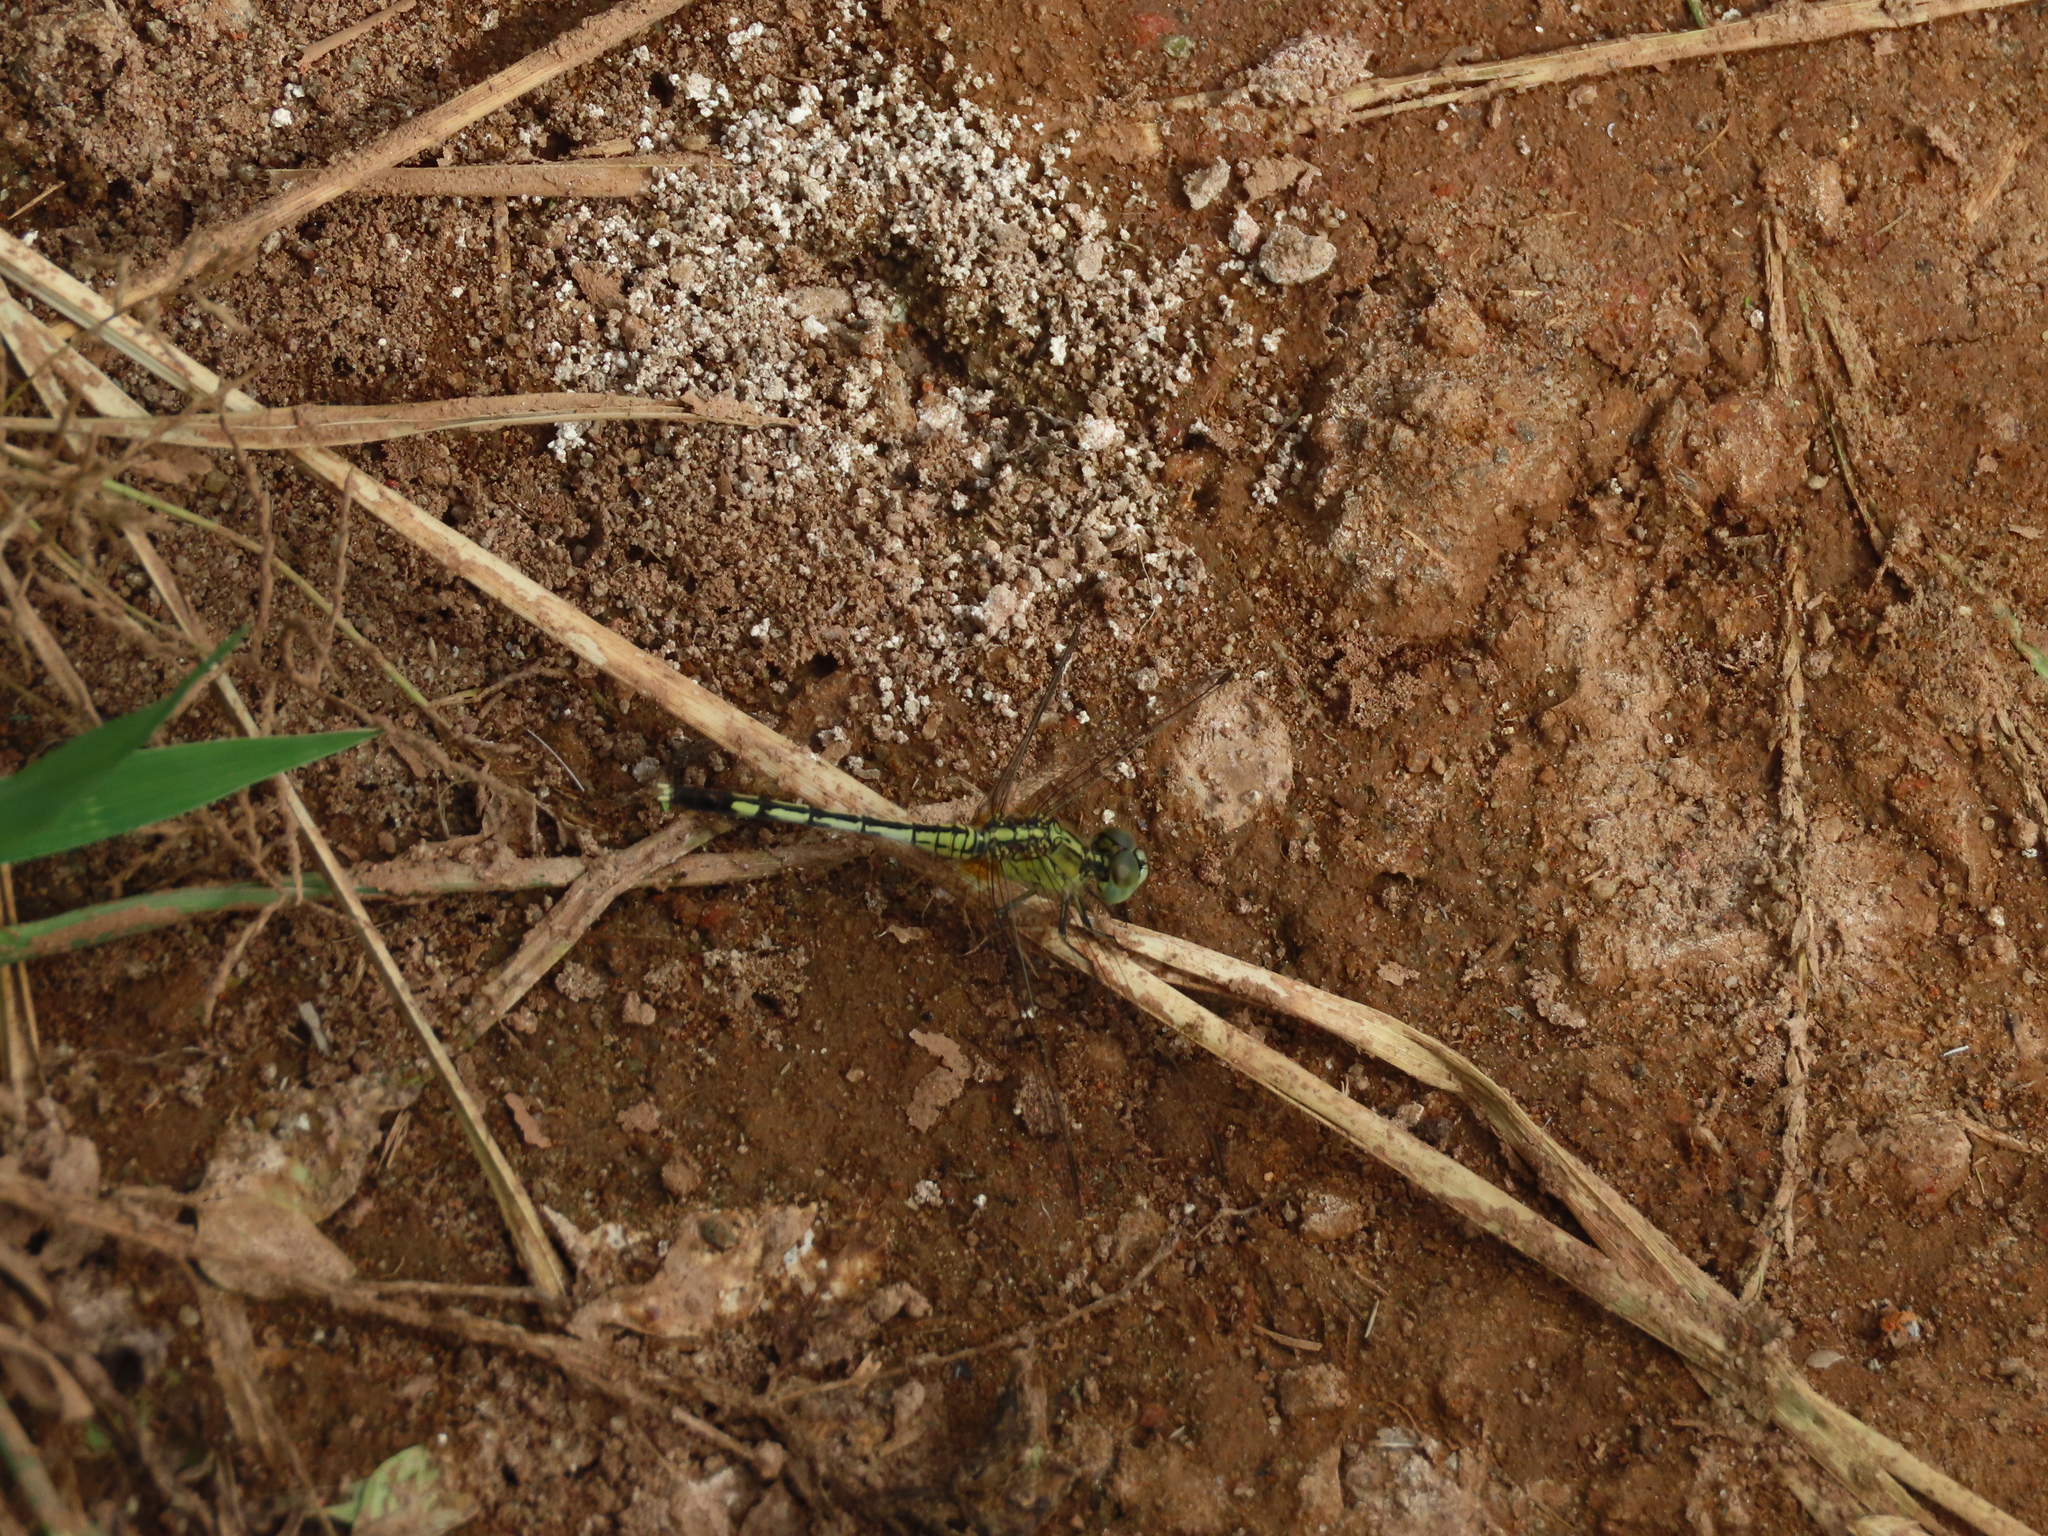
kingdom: Animalia
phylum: Arthropoda
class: Insecta
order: Odonata
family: Libellulidae
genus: Diplacodes
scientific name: Diplacodes trivialis
